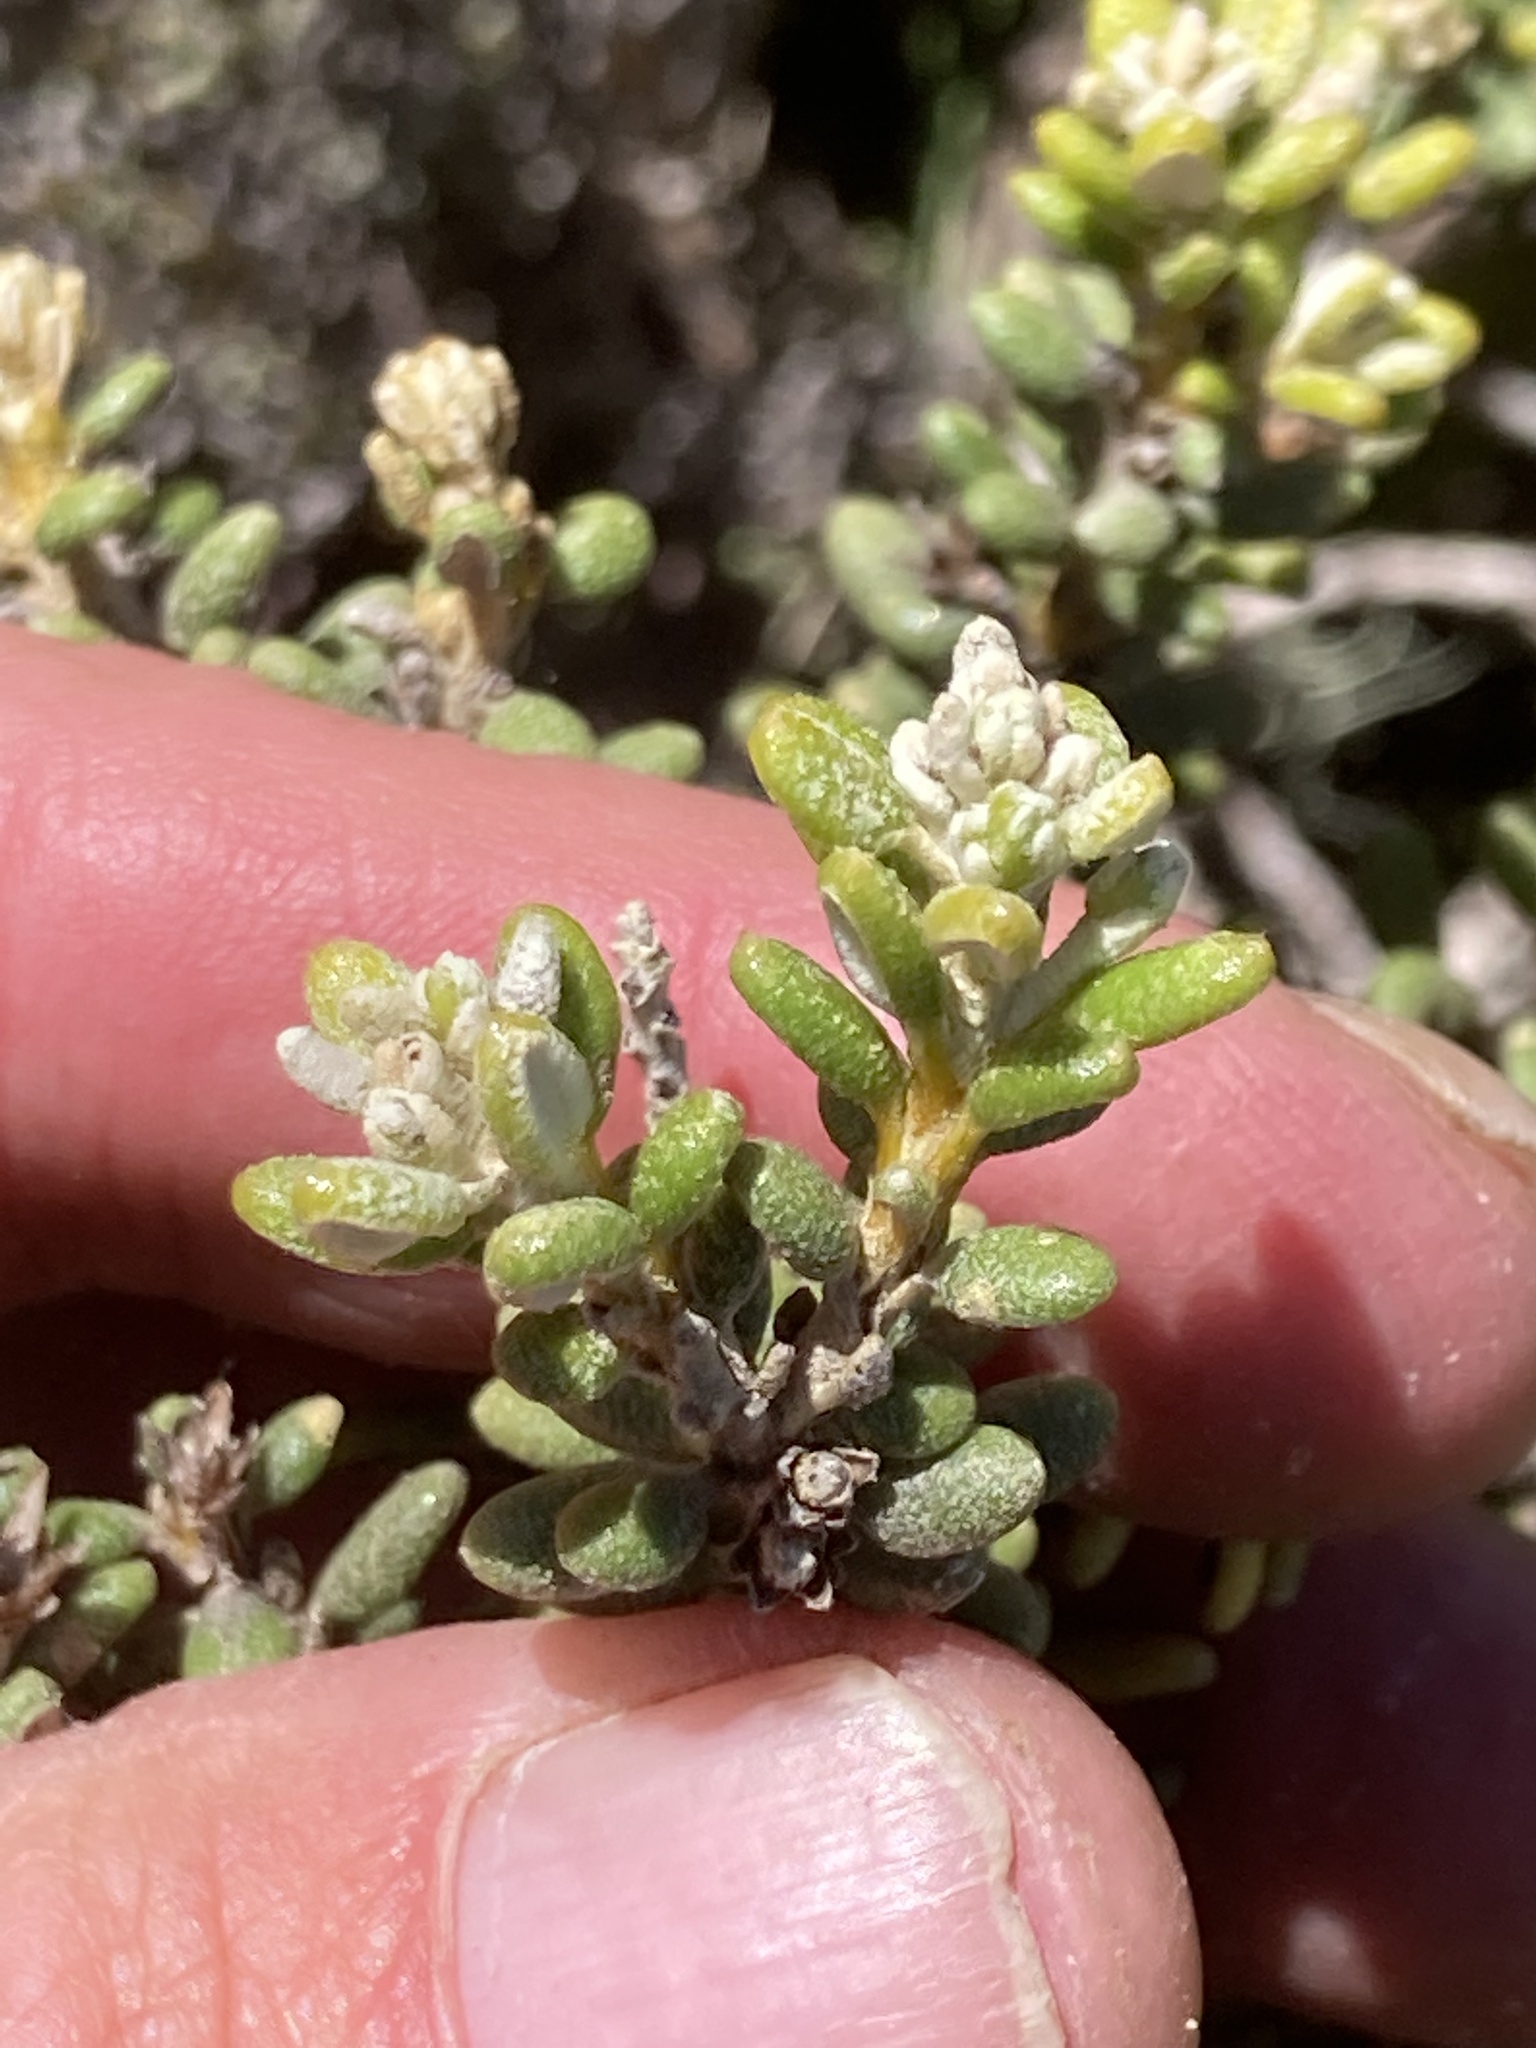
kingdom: Plantae
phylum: Tracheophyta
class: Magnoliopsida
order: Asterales
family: Asteraceae
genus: Olearia
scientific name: Olearia cymbifolia
